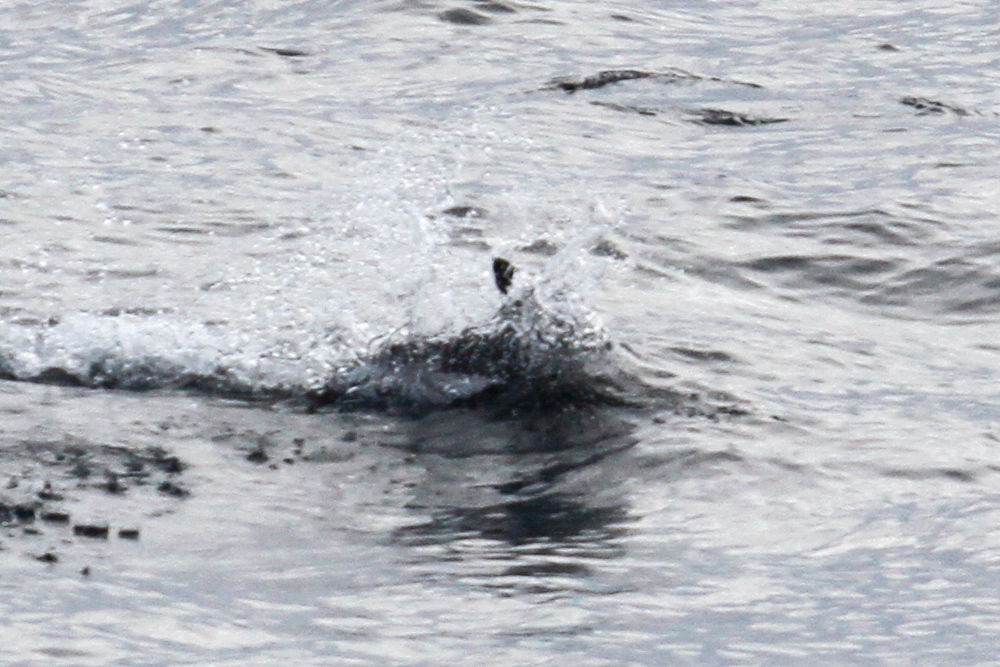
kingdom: Animalia
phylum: Chordata
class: Mammalia
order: Cetacea
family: Delphinidae
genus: Lagenorhynchus
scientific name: Lagenorhynchus cruciger
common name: Hourglass dolphin
